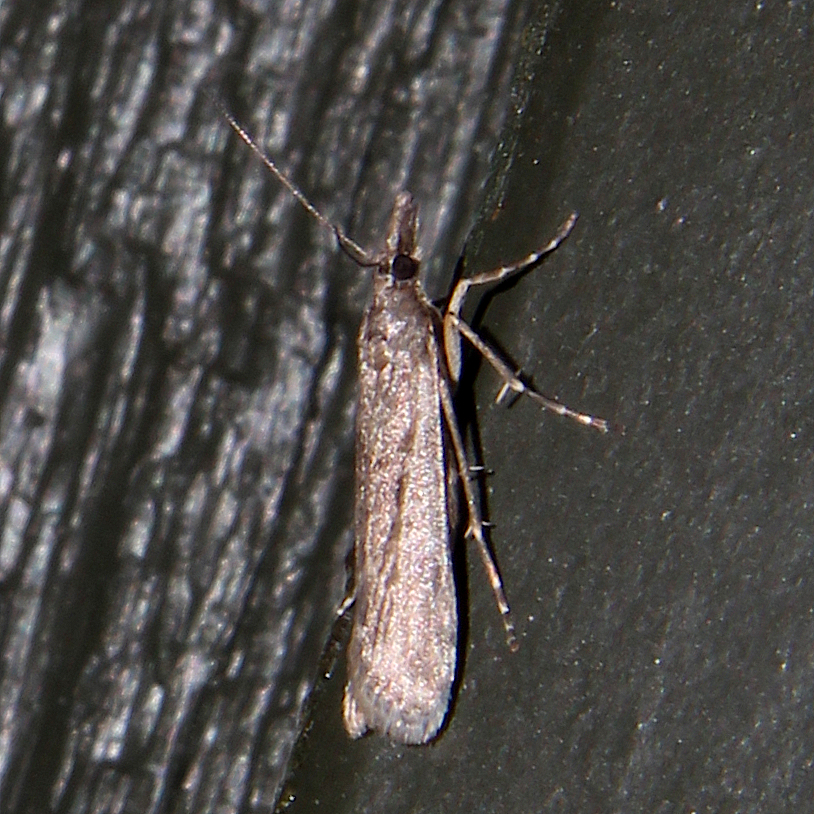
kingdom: Animalia
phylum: Arthropoda
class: Insecta
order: Lepidoptera
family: Crambidae
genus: Eudonia
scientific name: Eudonia leptalea
